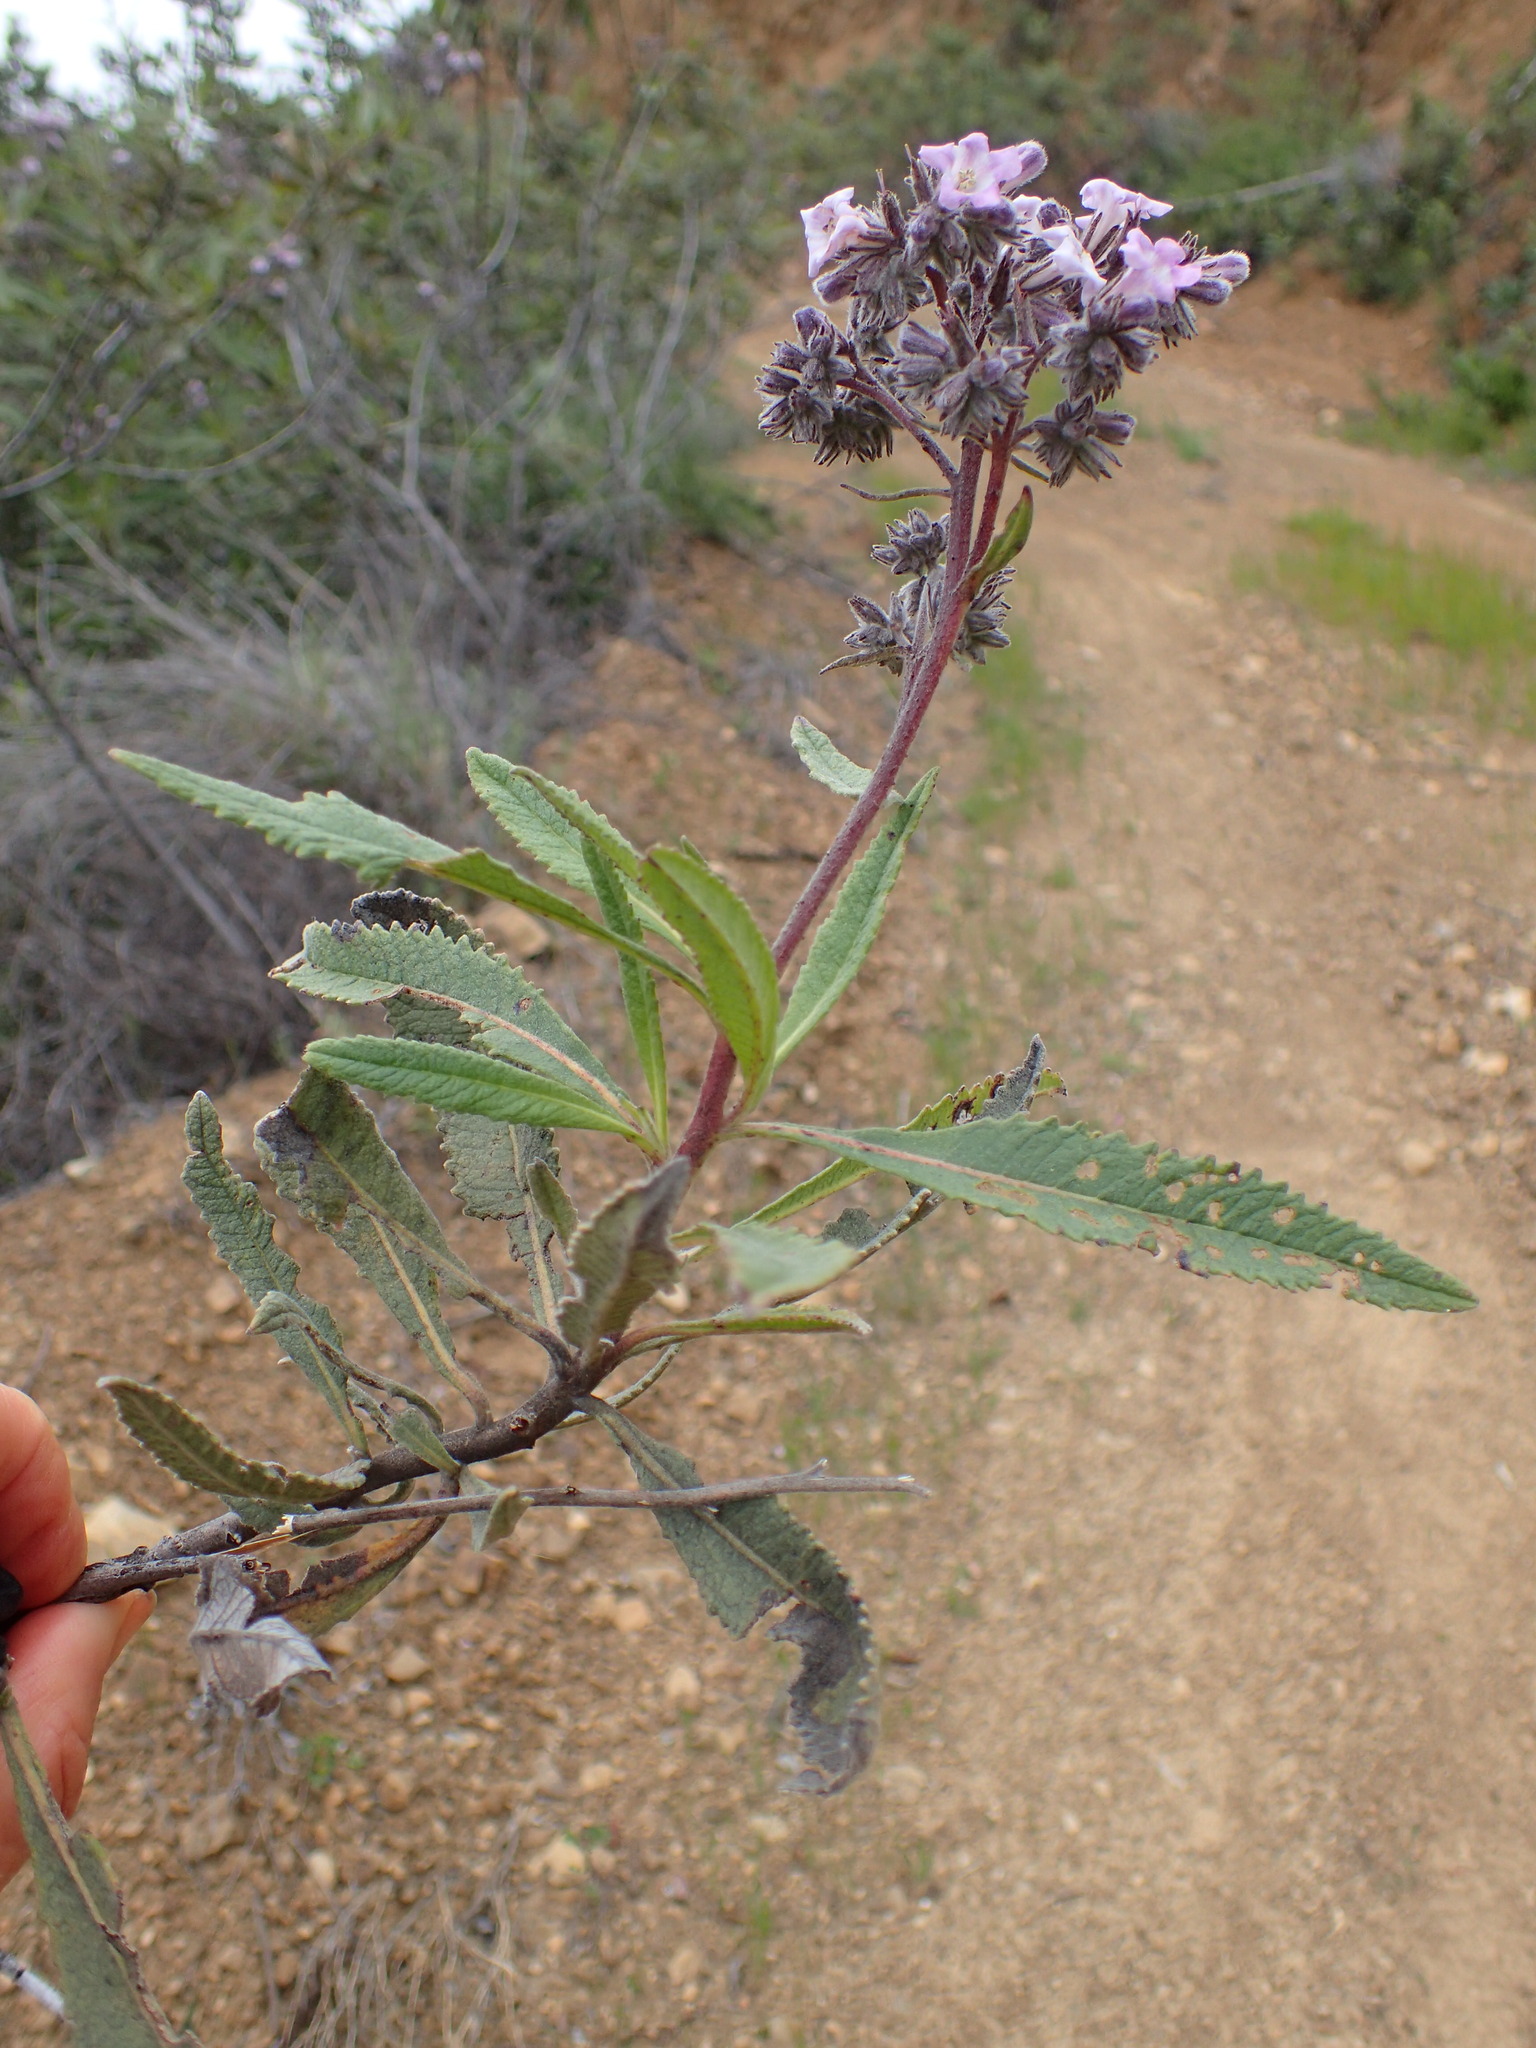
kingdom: Plantae
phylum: Tracheophyta
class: Magnoliopsida
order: Boraginales
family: Namaceae
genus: Eriodictyon
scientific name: Eriodictyon crassifolium
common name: Thick-leaf yerba-santa
